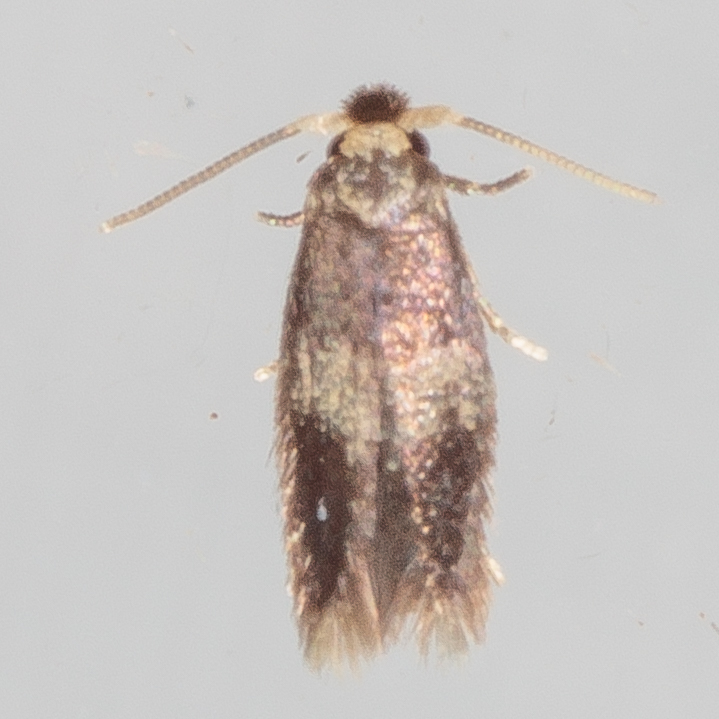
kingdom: Animalia
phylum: Arthropoda
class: Insecta
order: Lepidoptera
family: Nepticulidae
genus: Stigmella
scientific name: Stigmella nigriverticella
